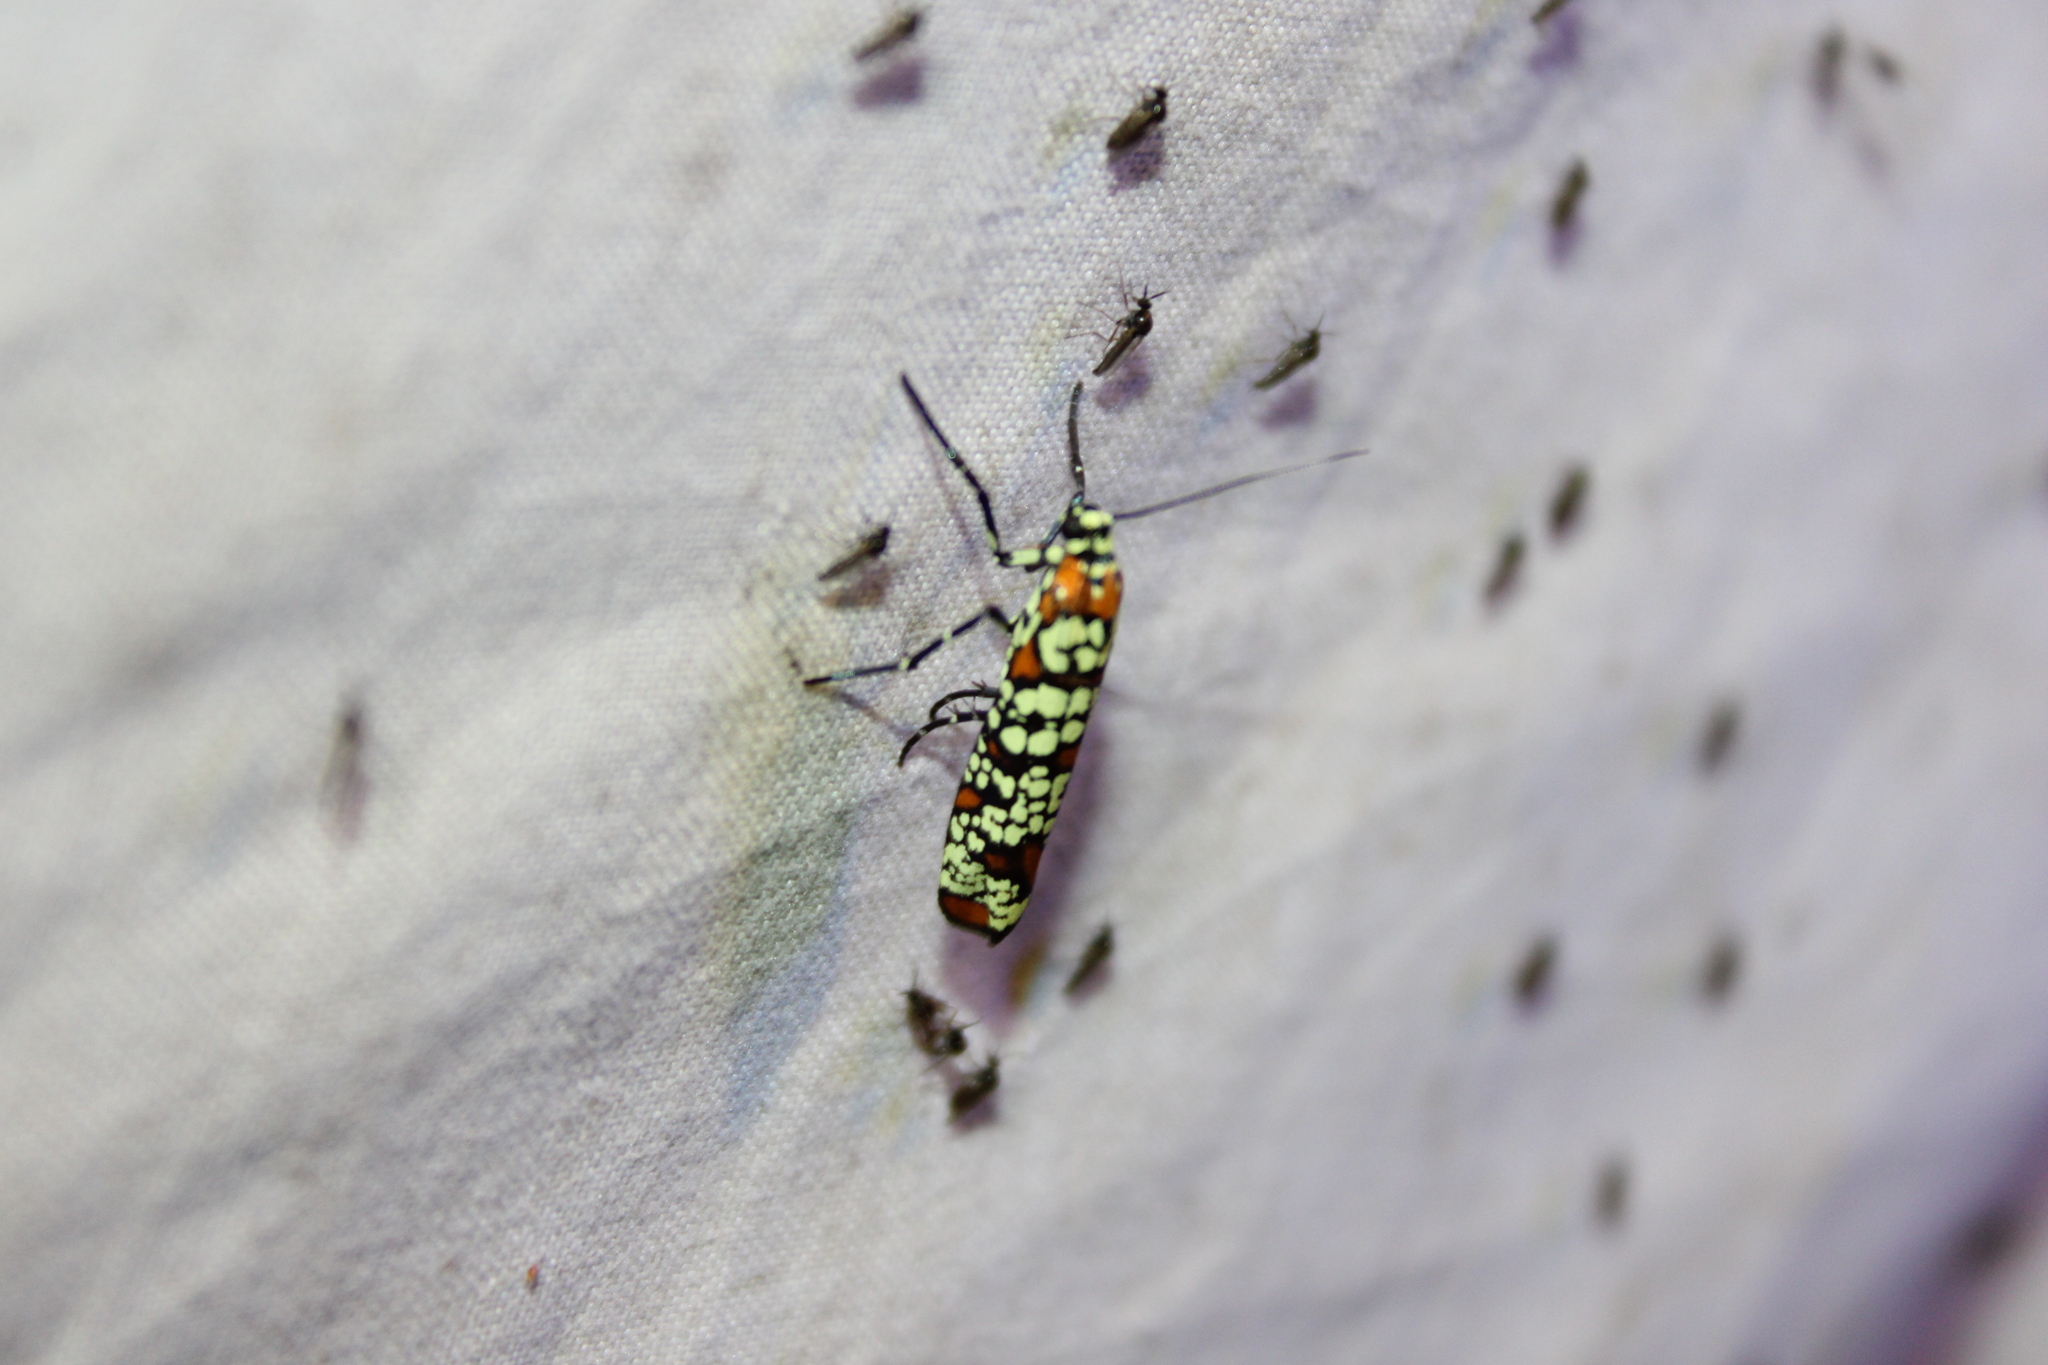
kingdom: Animalia
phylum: Arthropoda
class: Insecta
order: Lepidoptera
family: Attevidae
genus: Atteva
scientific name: Atteva punctella
